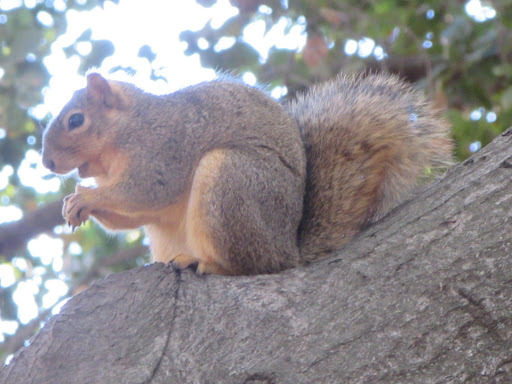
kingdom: Animalia
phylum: Chordata
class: Mammalia
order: Rodentia
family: Sciuridae
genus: Sciurus
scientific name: Sciurus niger
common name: Fox squirrel
